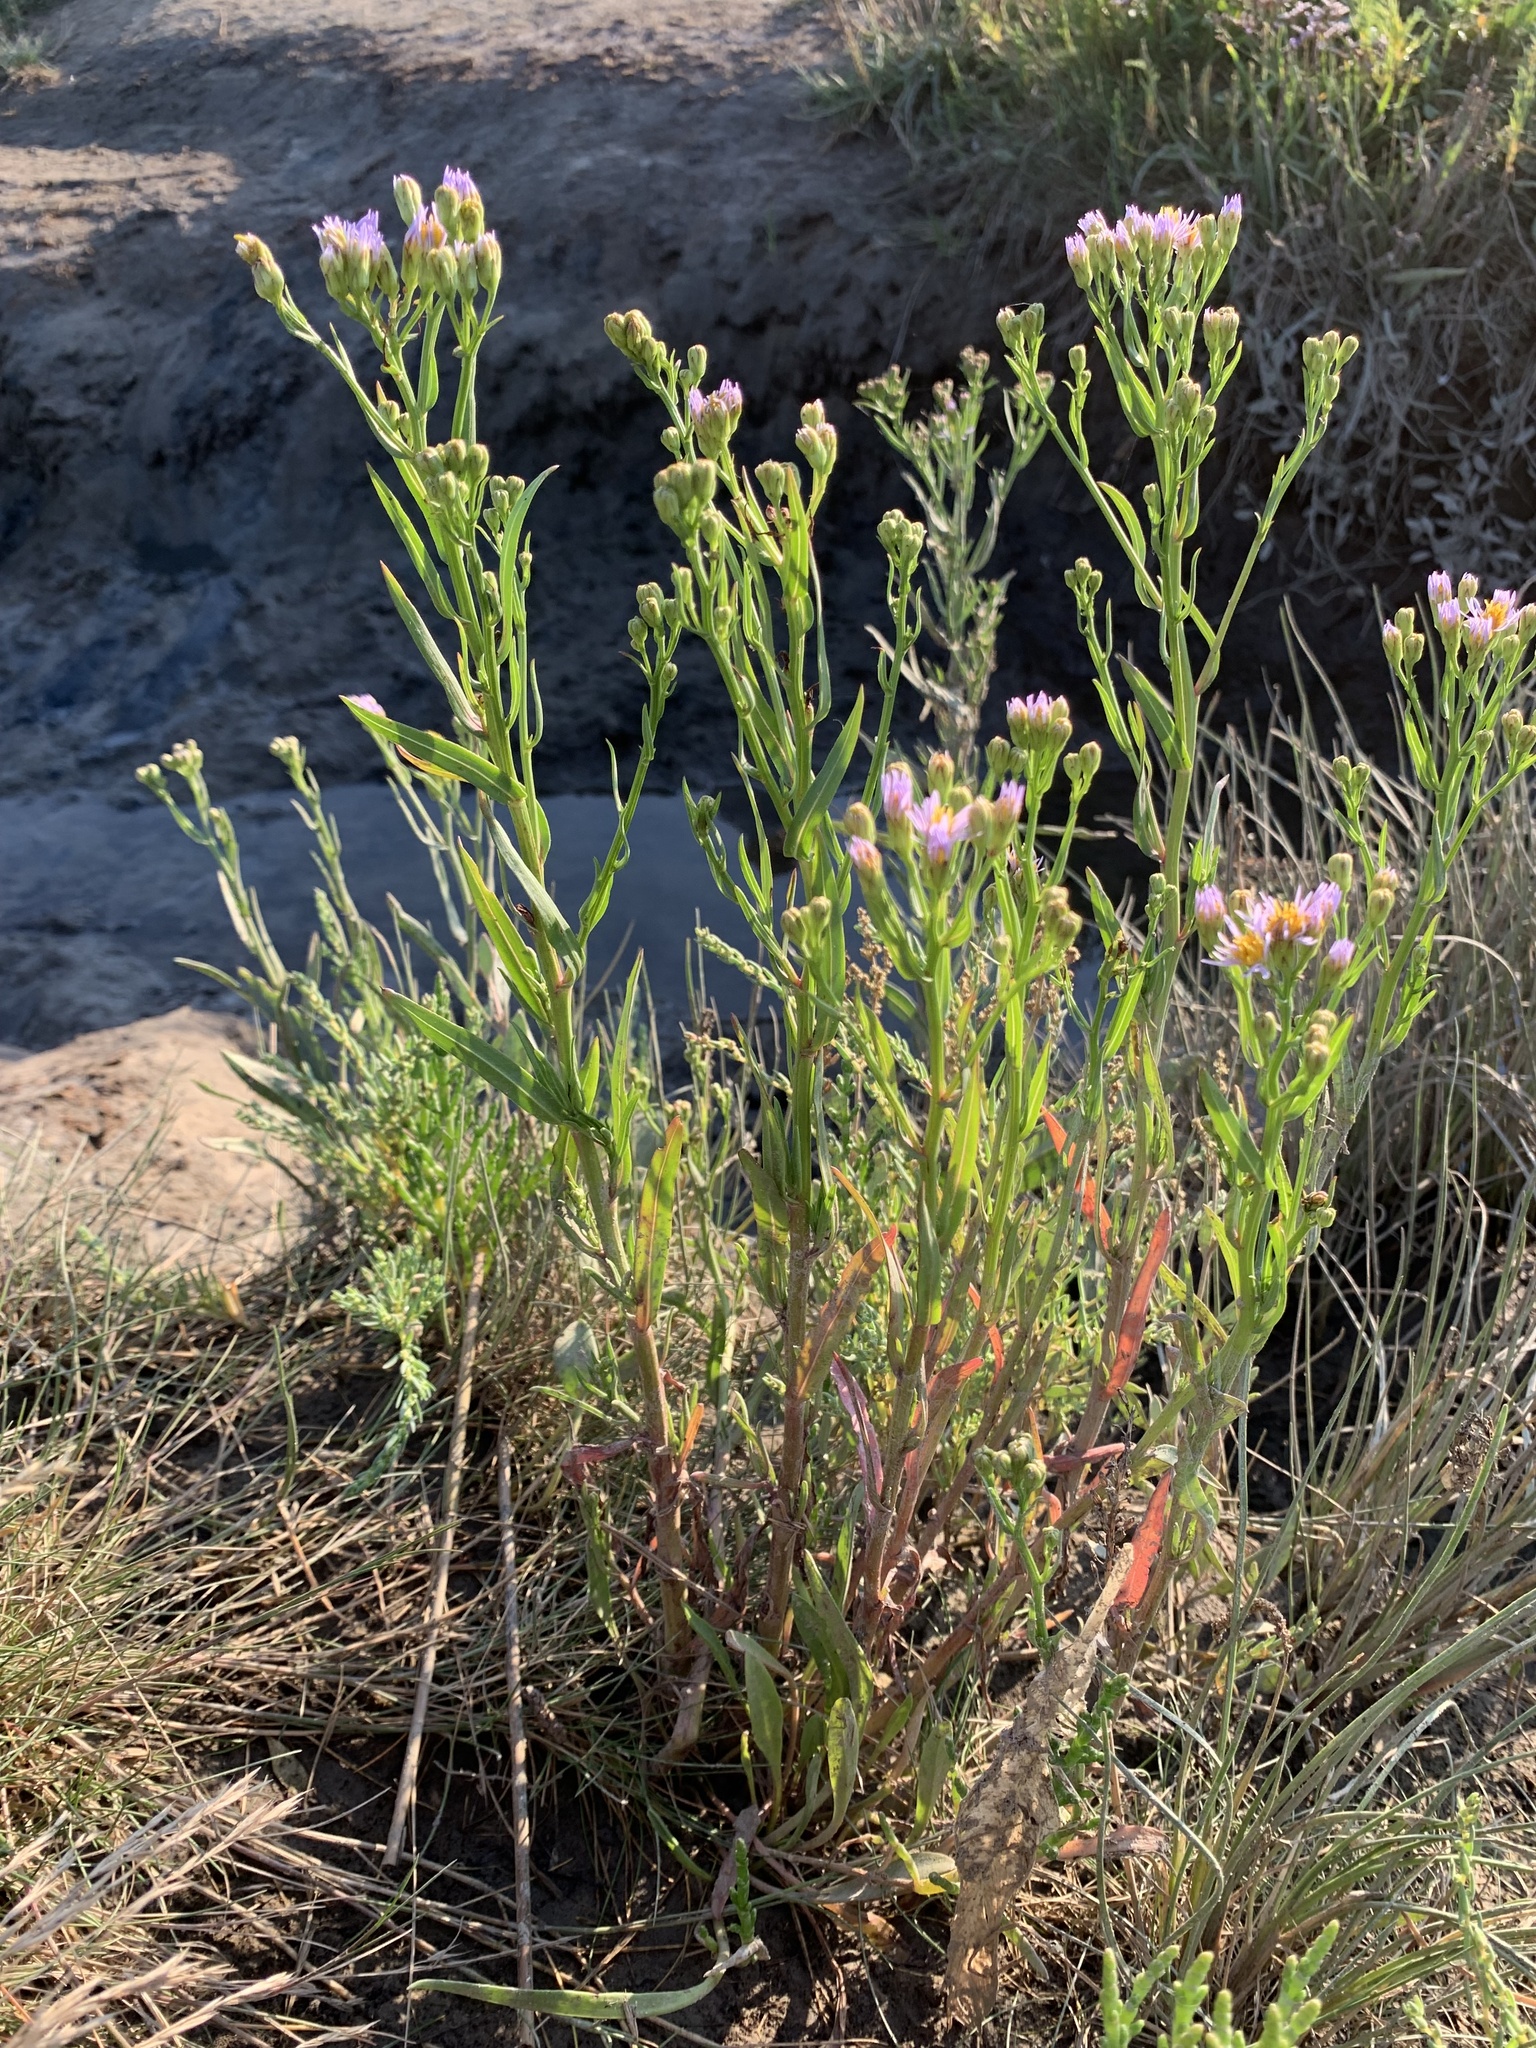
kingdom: Plantae
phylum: Tracheophyta
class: Magnoliopsida
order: Asterales
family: Asteraceae
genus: Tripolium
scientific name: Tripolium pannonicum
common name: Sea aster
